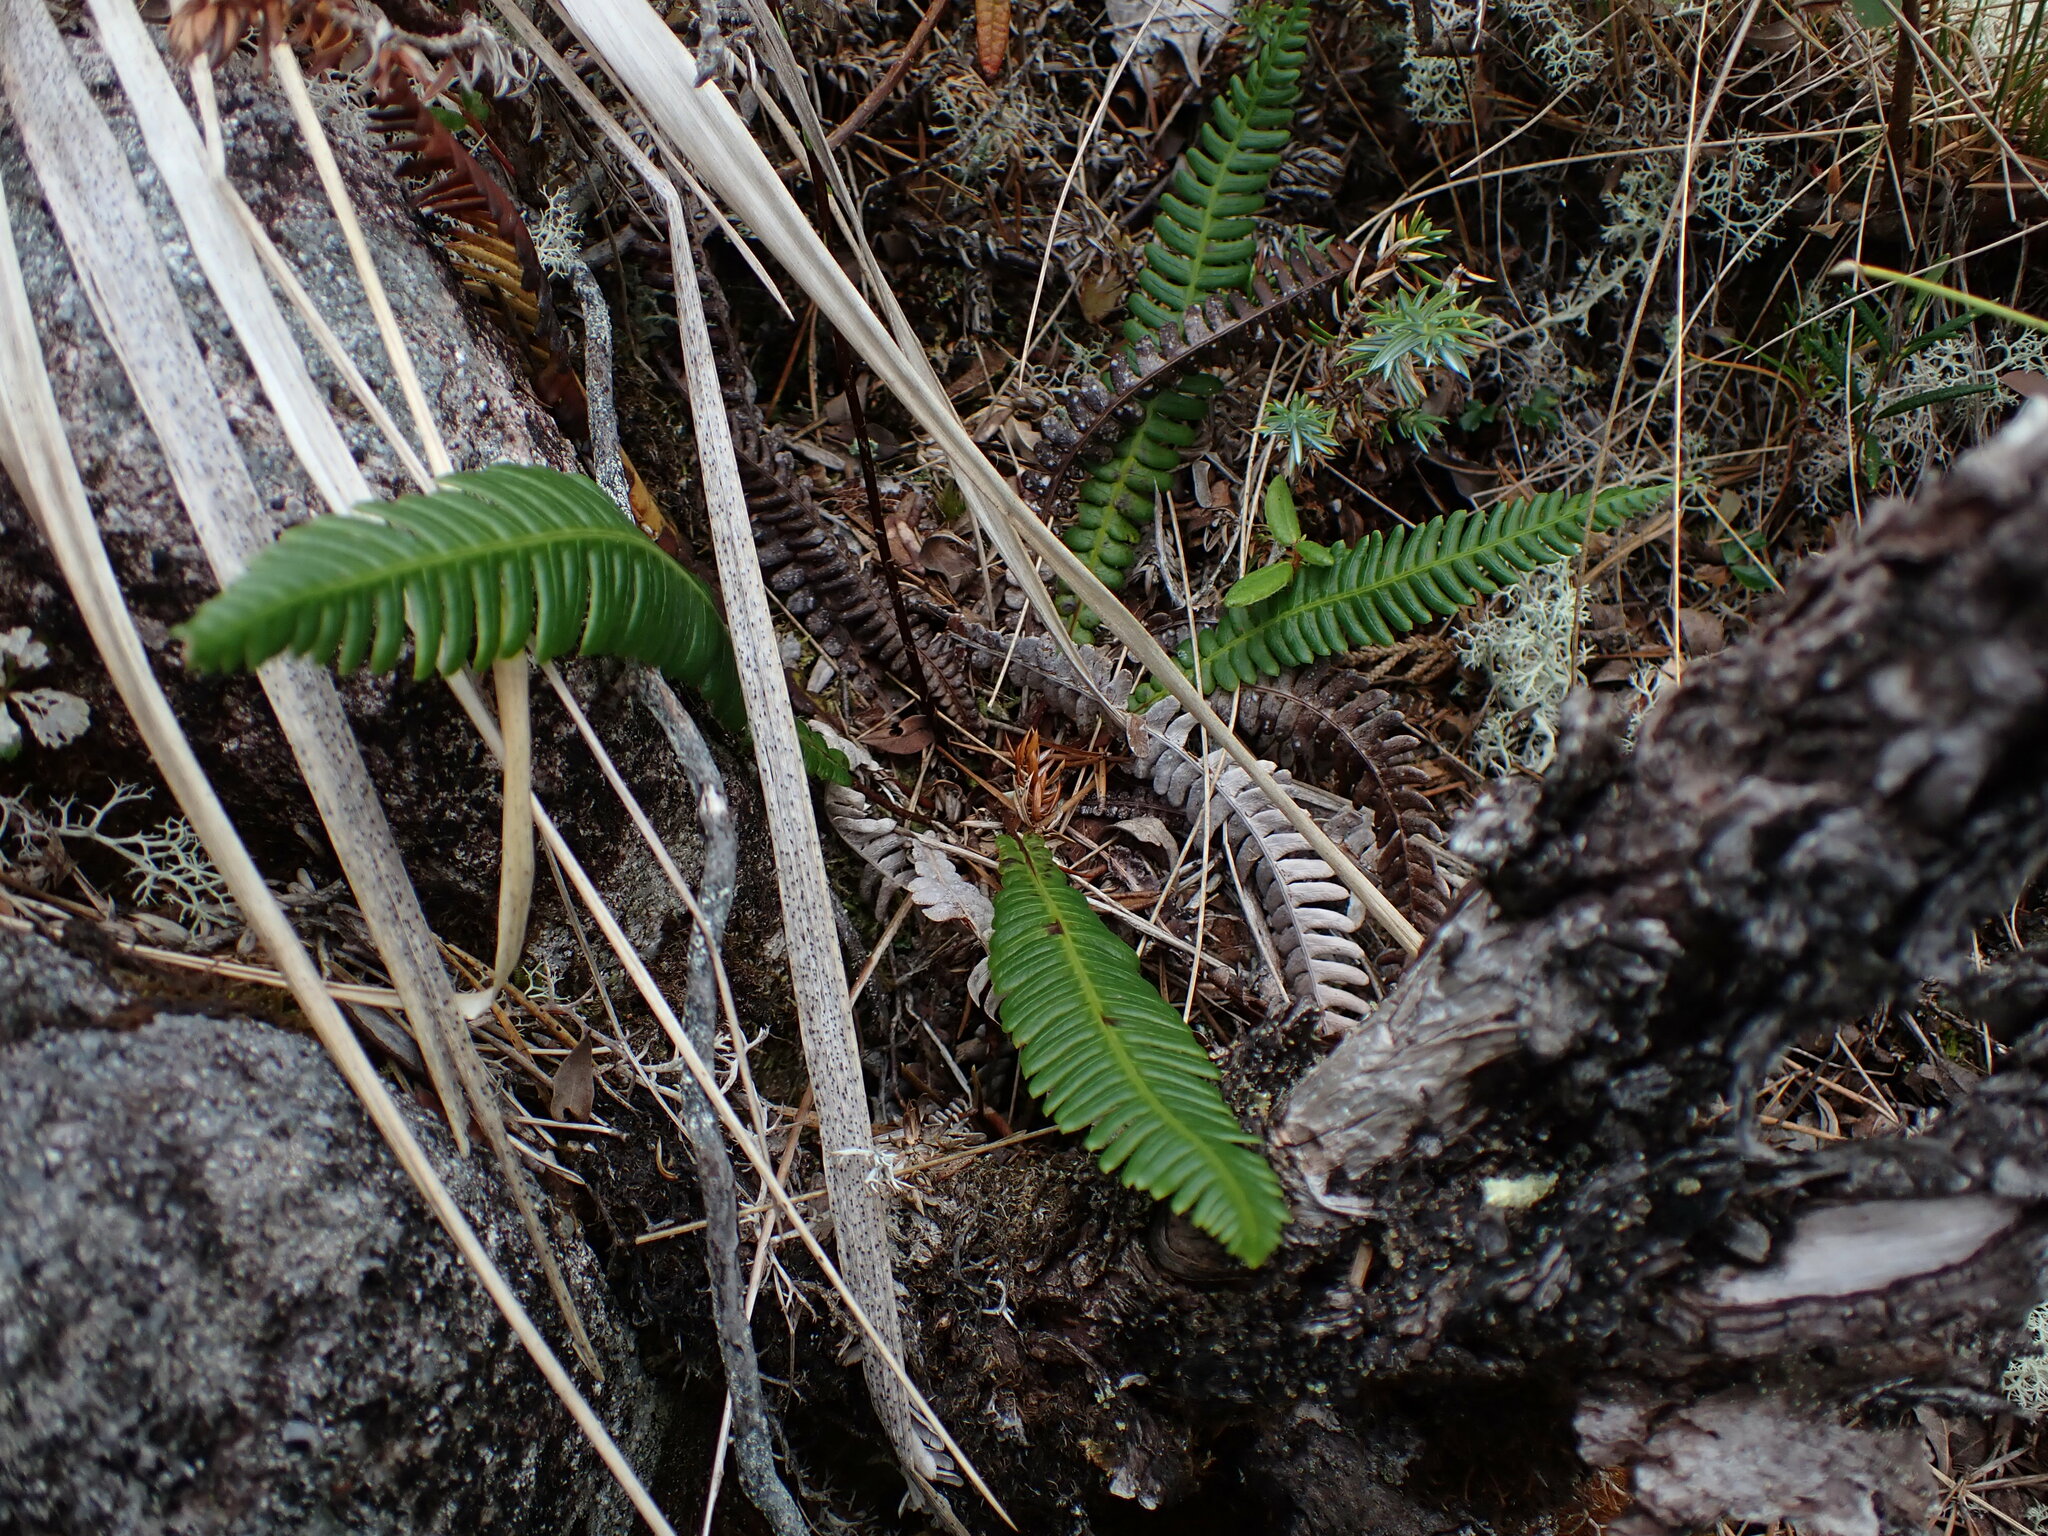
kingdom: Plantae
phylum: Tracheophyta
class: Polypodiopsida
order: Polypodiales
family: Blechnaceae
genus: Struthiopteris
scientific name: Struthiopteris spicant
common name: Deer fern
